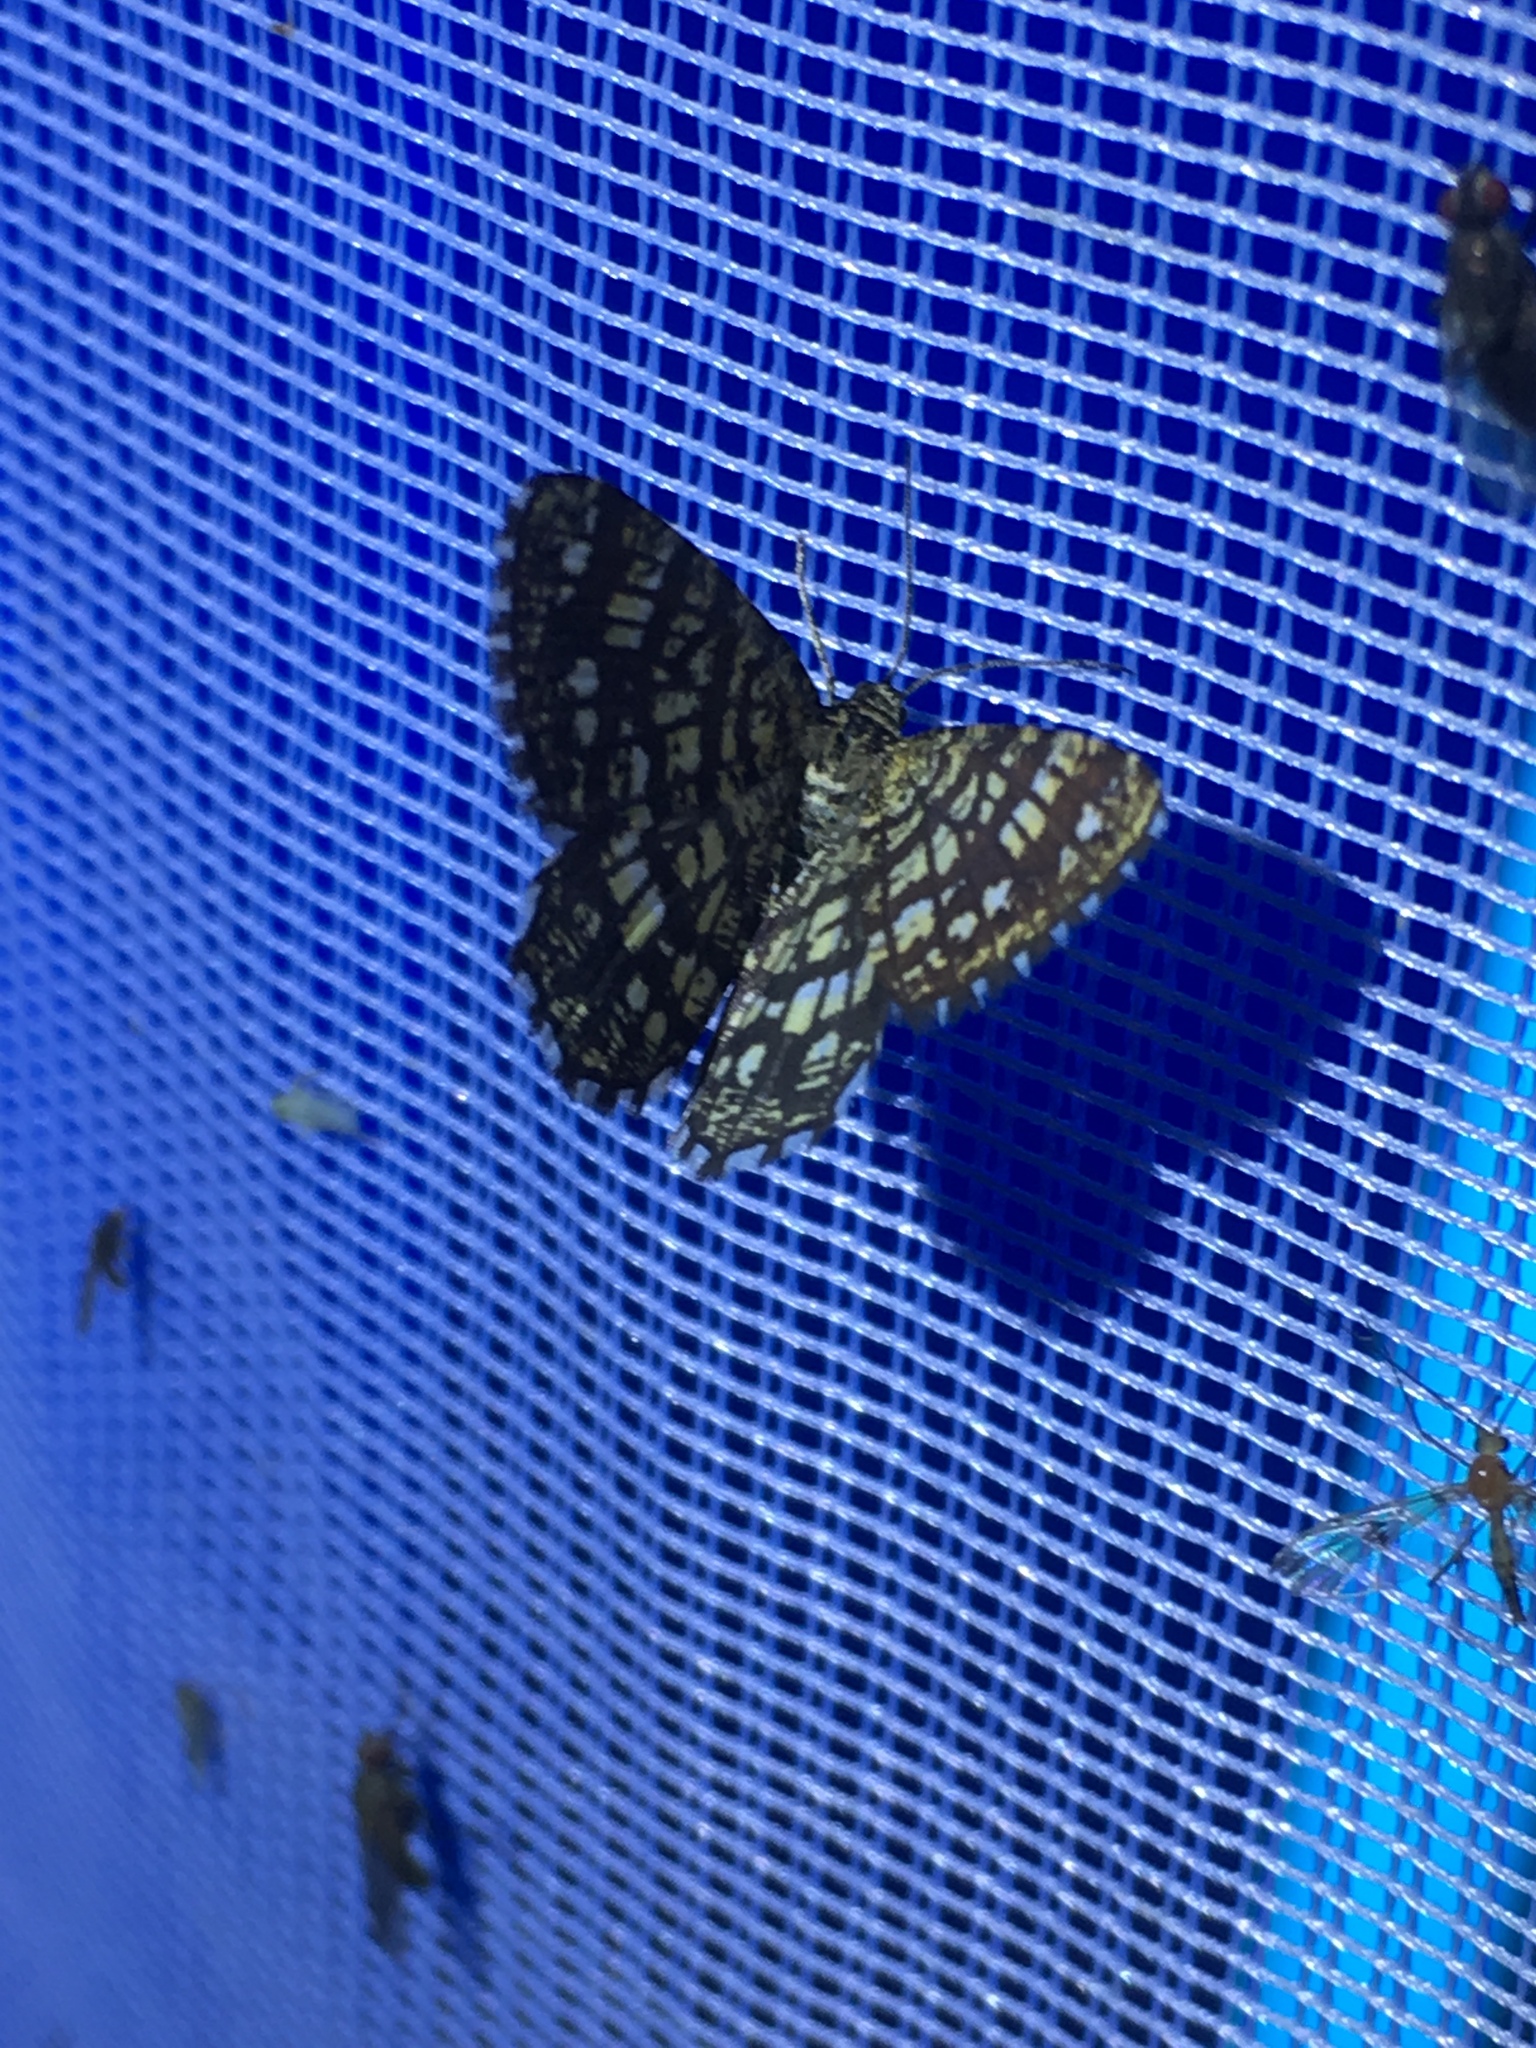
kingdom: Animalia
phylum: Arthropoda
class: Insecta
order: Lepidoptera
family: Geometridae
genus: Chiasmia
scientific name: Chiasmia clathrata
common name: Latticed heath
